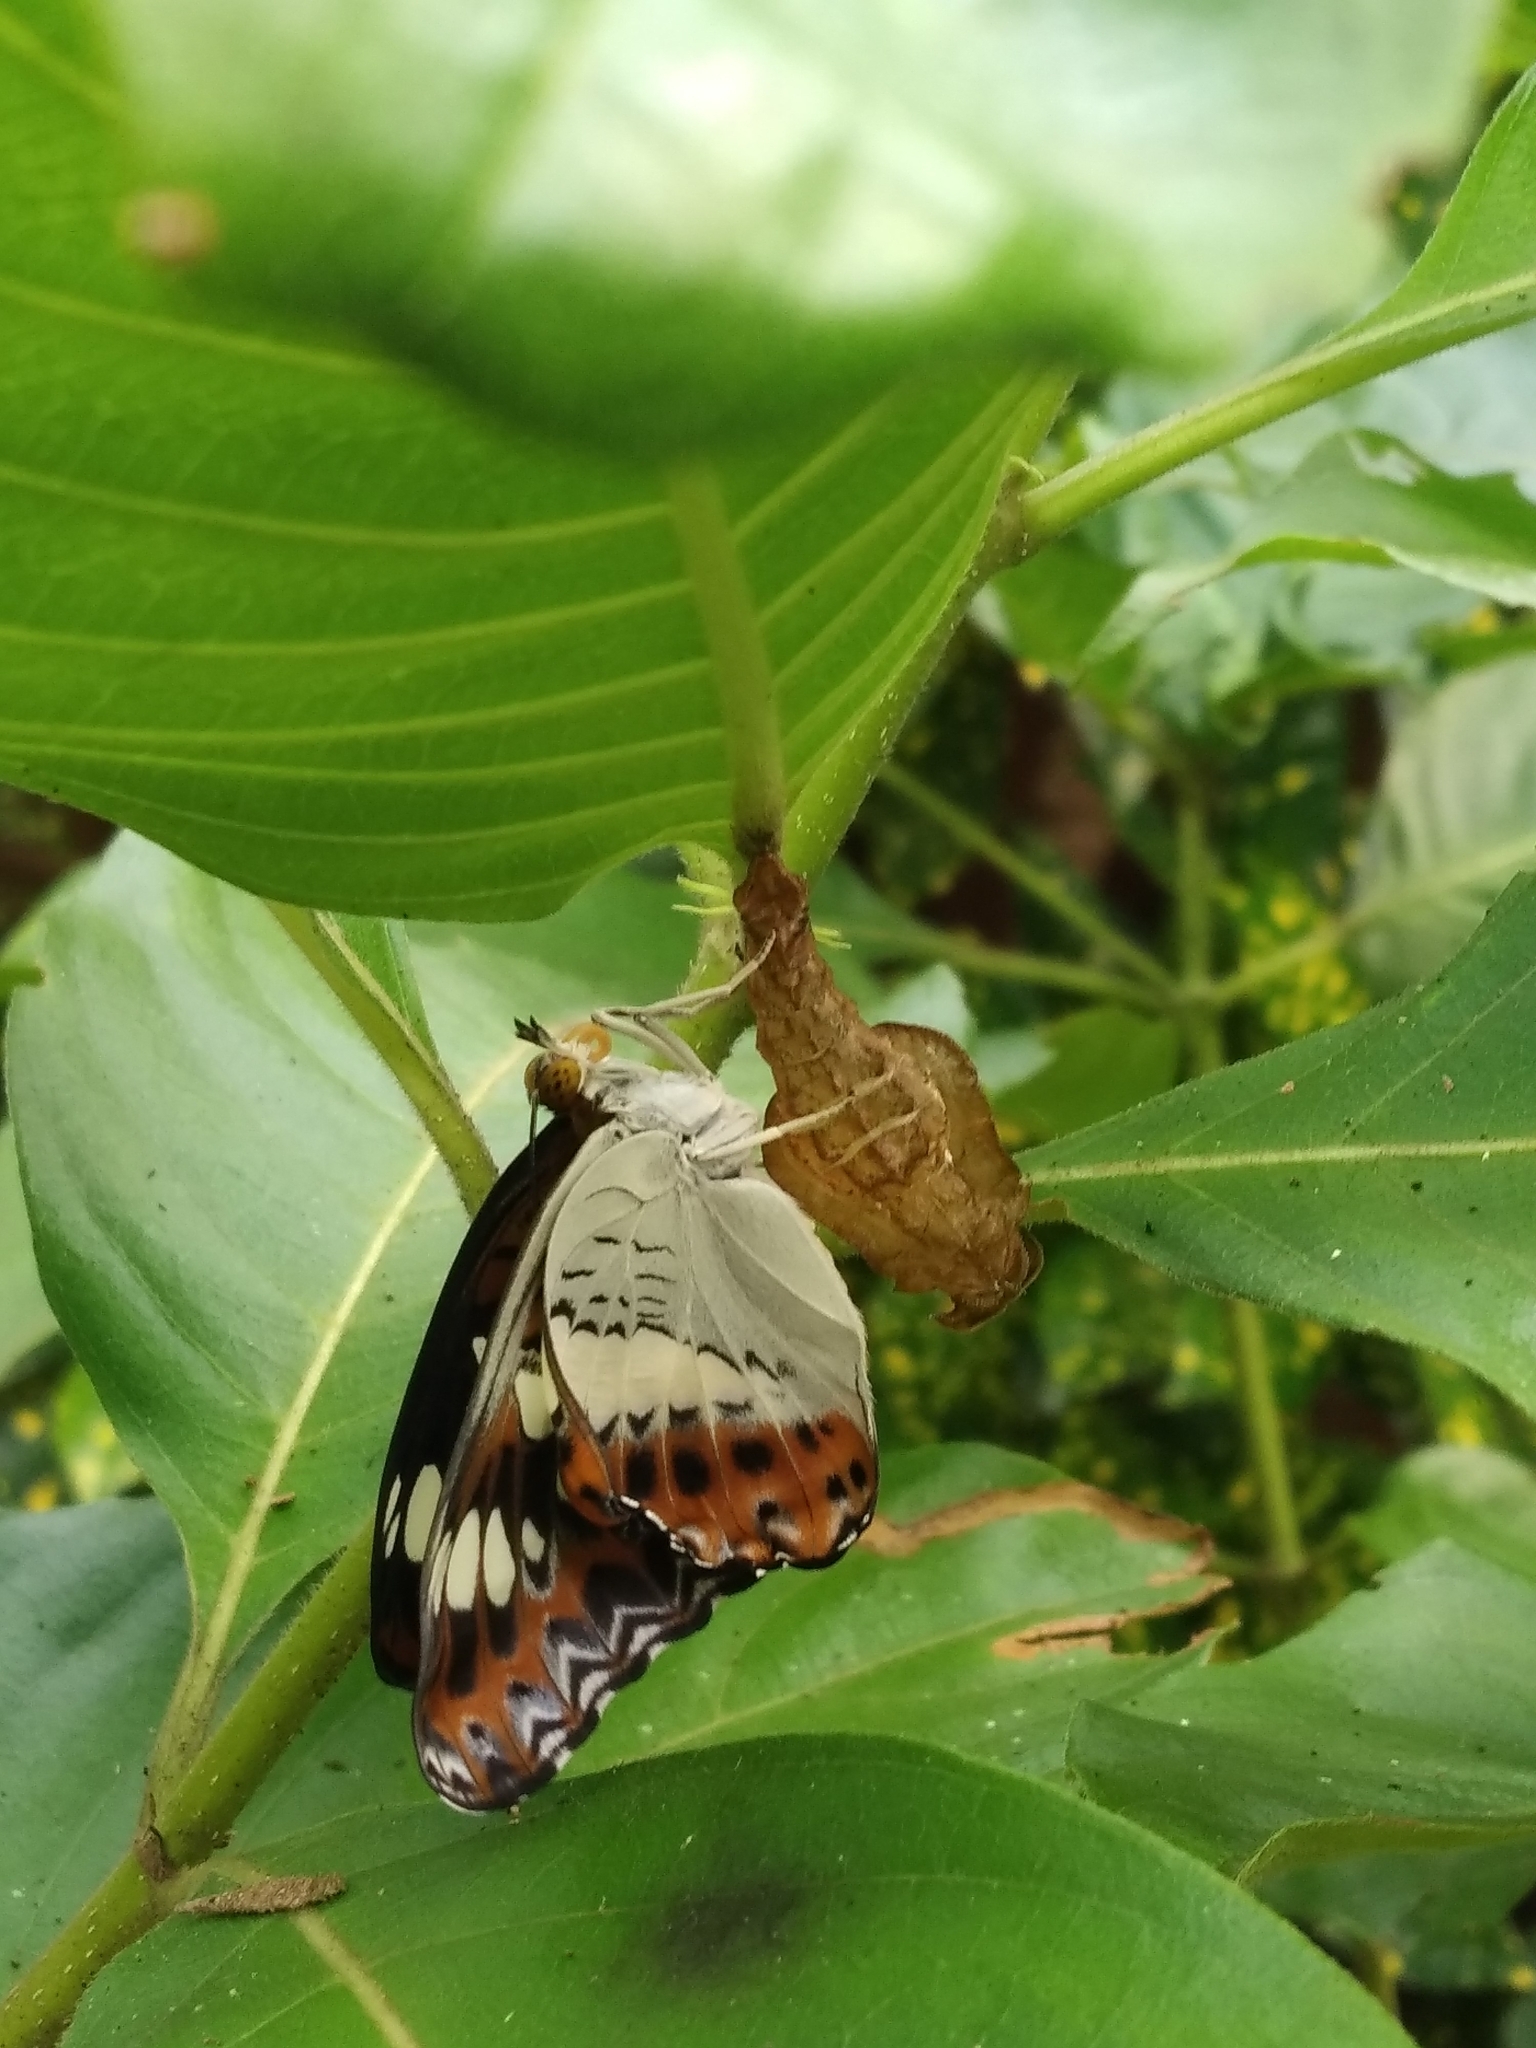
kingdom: Animalia
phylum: Arthropoda
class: Insecta
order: Lepidoptera
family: Nymphalidae
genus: Limenitis
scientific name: Limenitis Moduza procris
